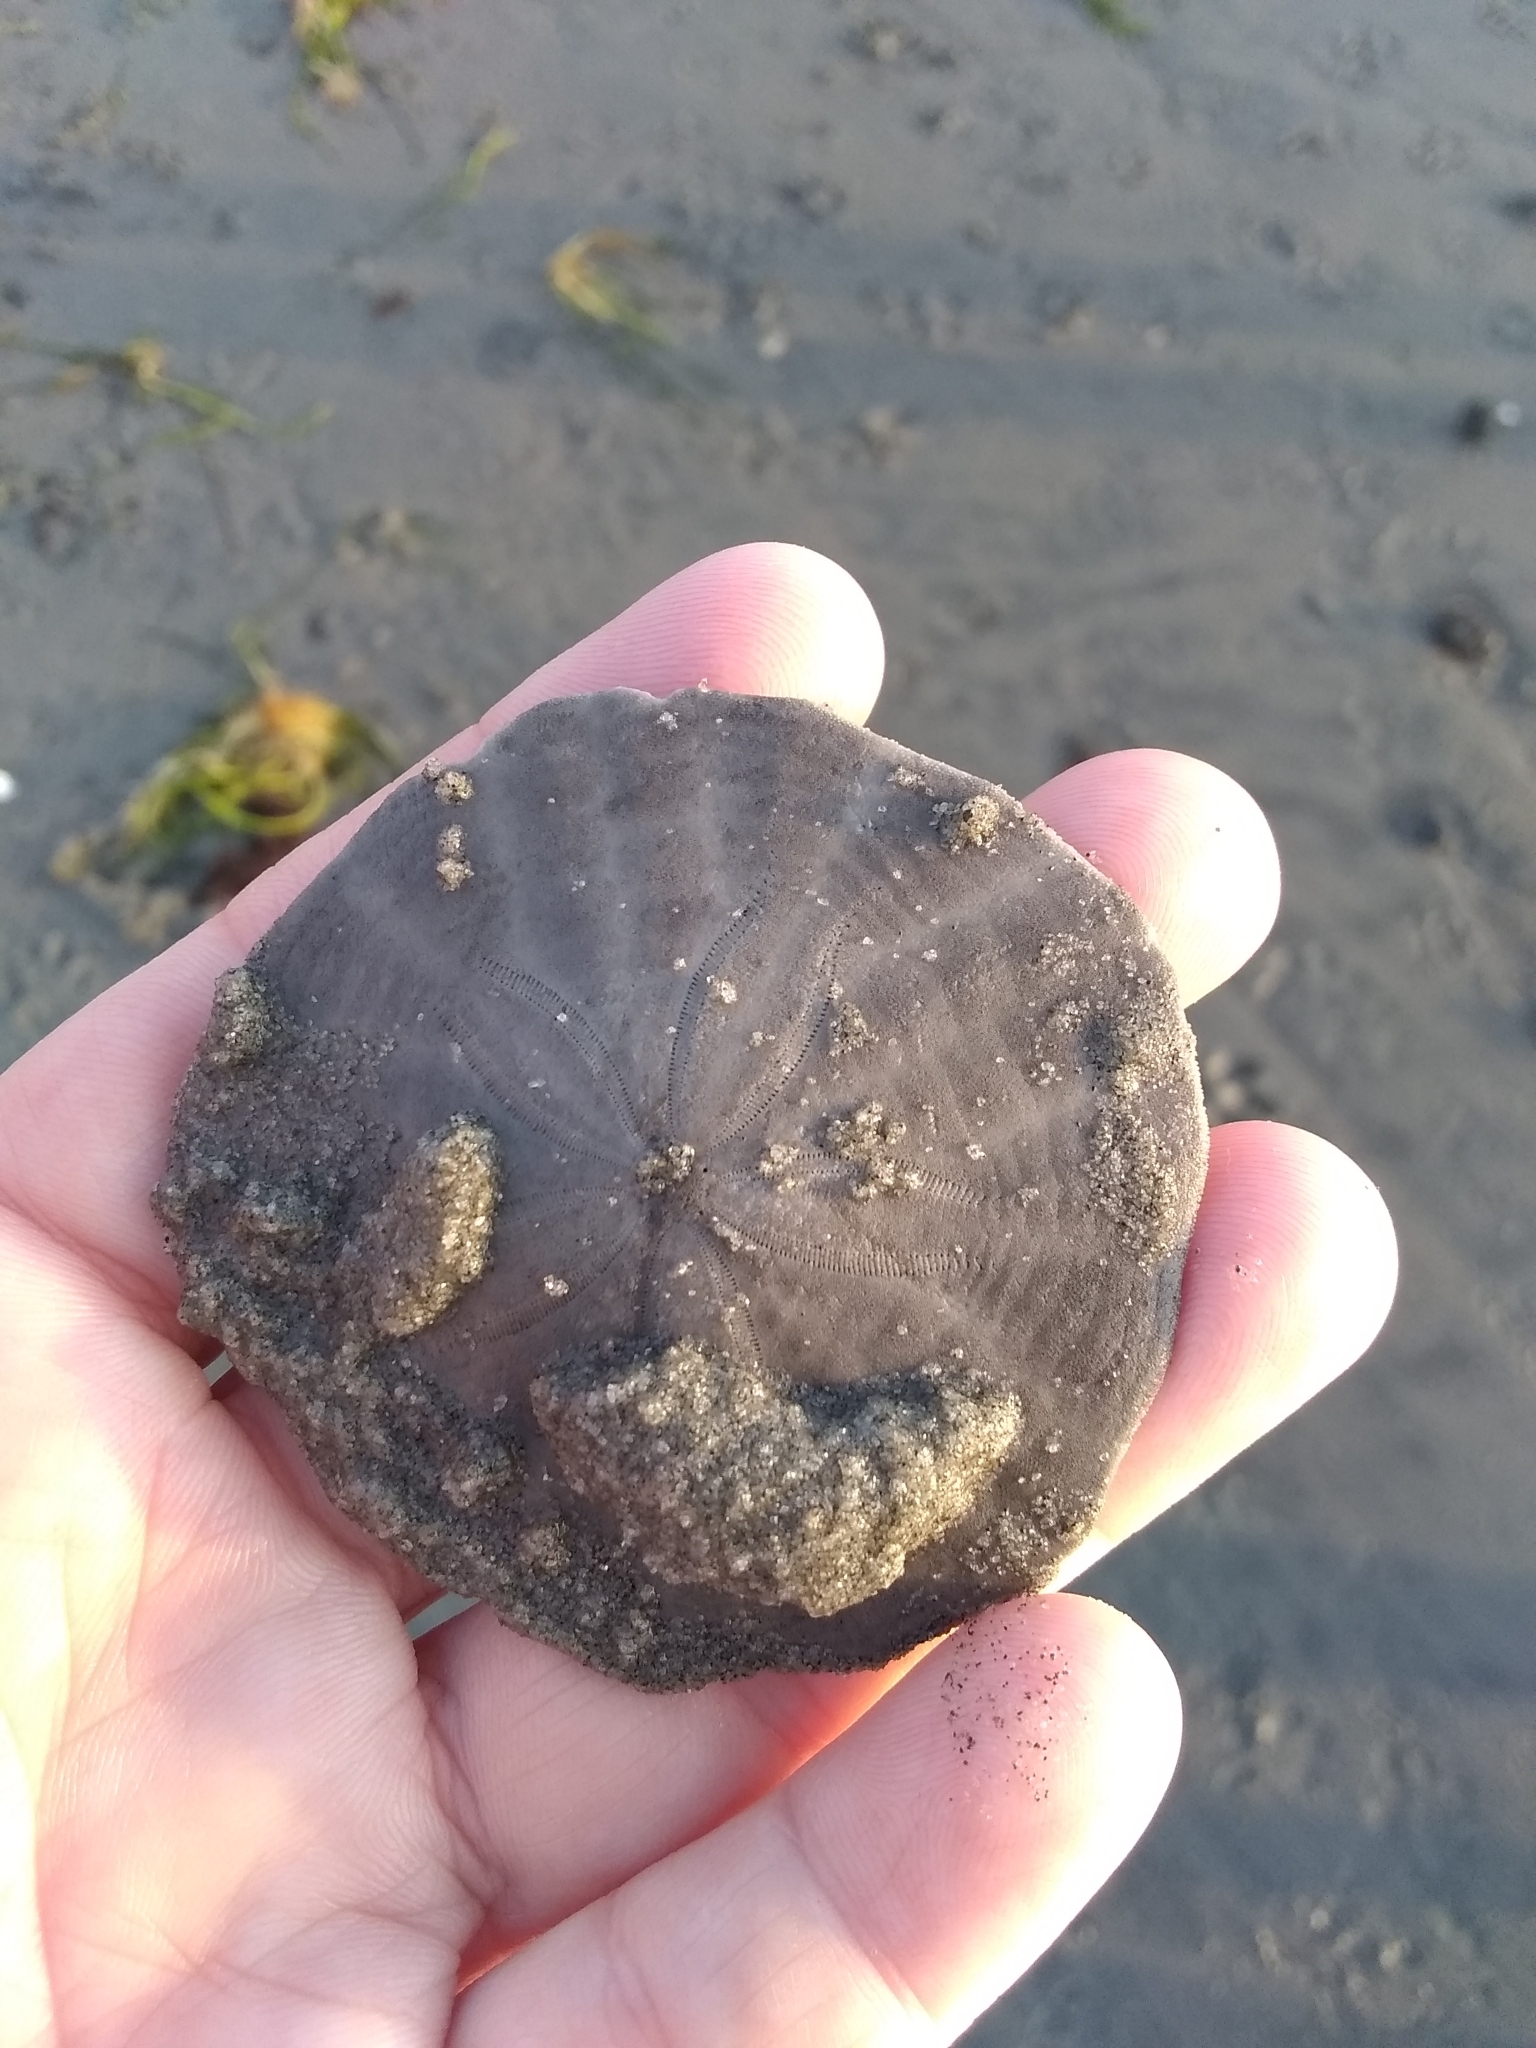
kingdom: Animalia
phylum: Echinodermata
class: Echinoidea
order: Echinolampadacea
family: Echinarachniidae
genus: Echinarachnius
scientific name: Echinarachnius parma
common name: Common sand dollar
